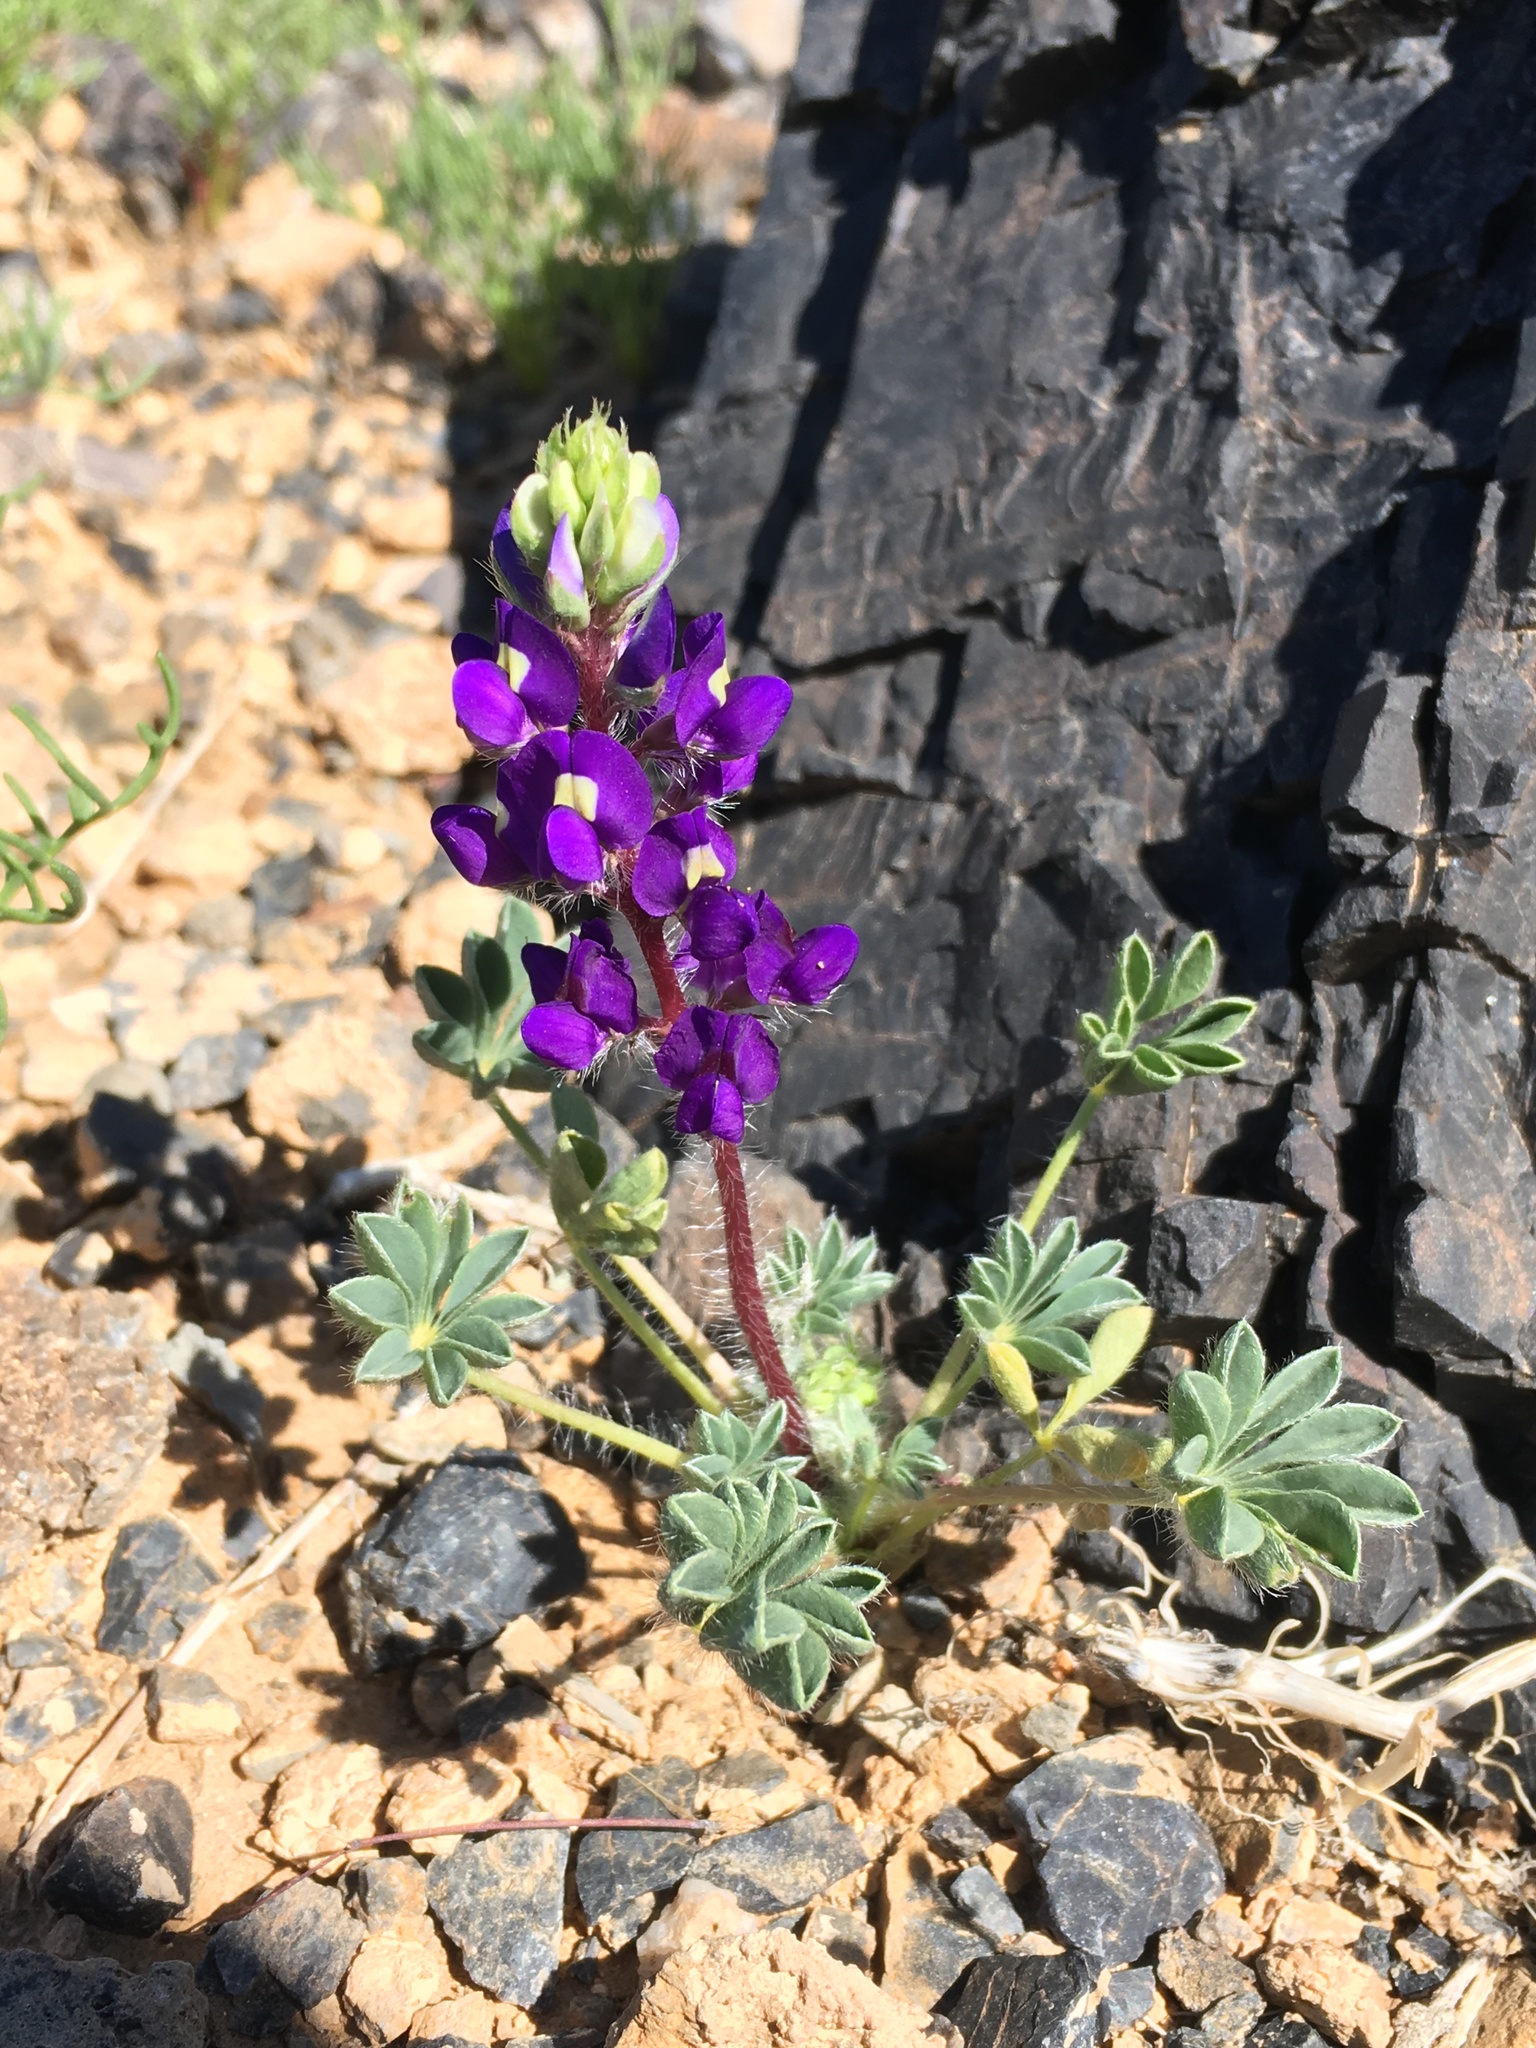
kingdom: Plantae
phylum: Tracheophyta
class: Magnoliopsida
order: Fabales
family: Fabaceae
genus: Lupinus
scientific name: Lupinus flavoculatus
